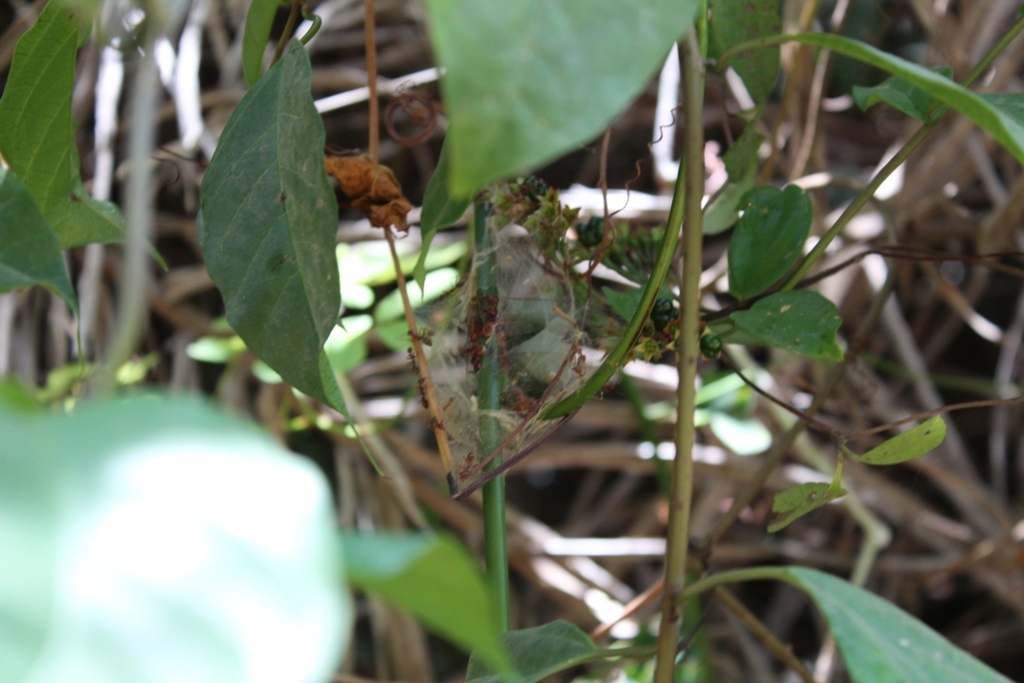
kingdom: Animalia
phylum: Arthropoda
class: Insecta
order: Hymenoptera
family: Formicidae
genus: Oecophylla
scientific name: Oecophylla longinoda
